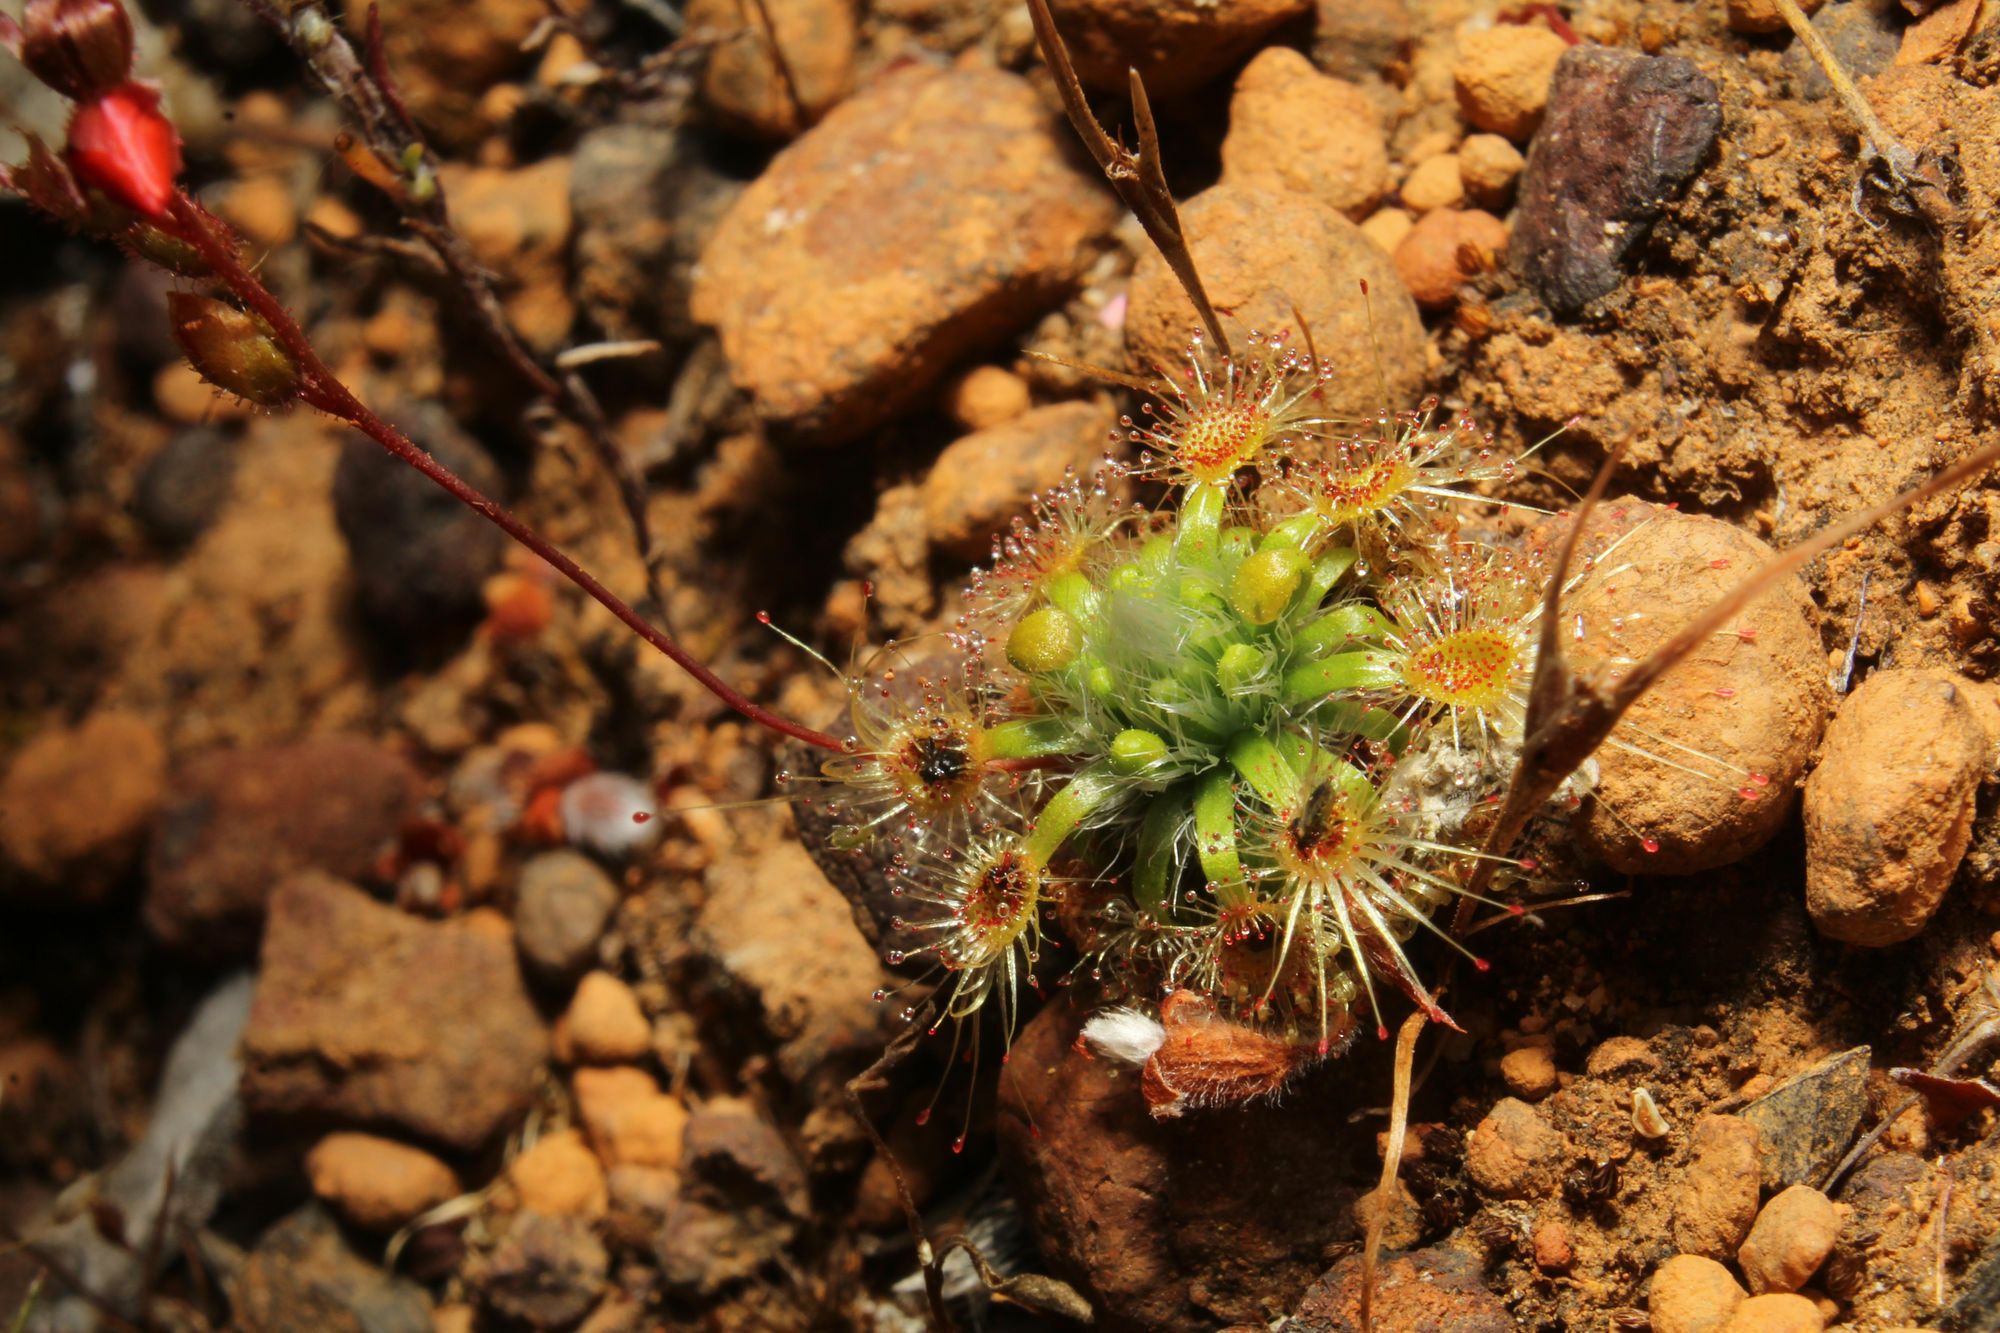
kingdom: Plantae
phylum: Tracheophyta
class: Magnoliopsida
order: Caryophyllales
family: Droseraceae
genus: Drosera
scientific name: Drosera hyperostigma
